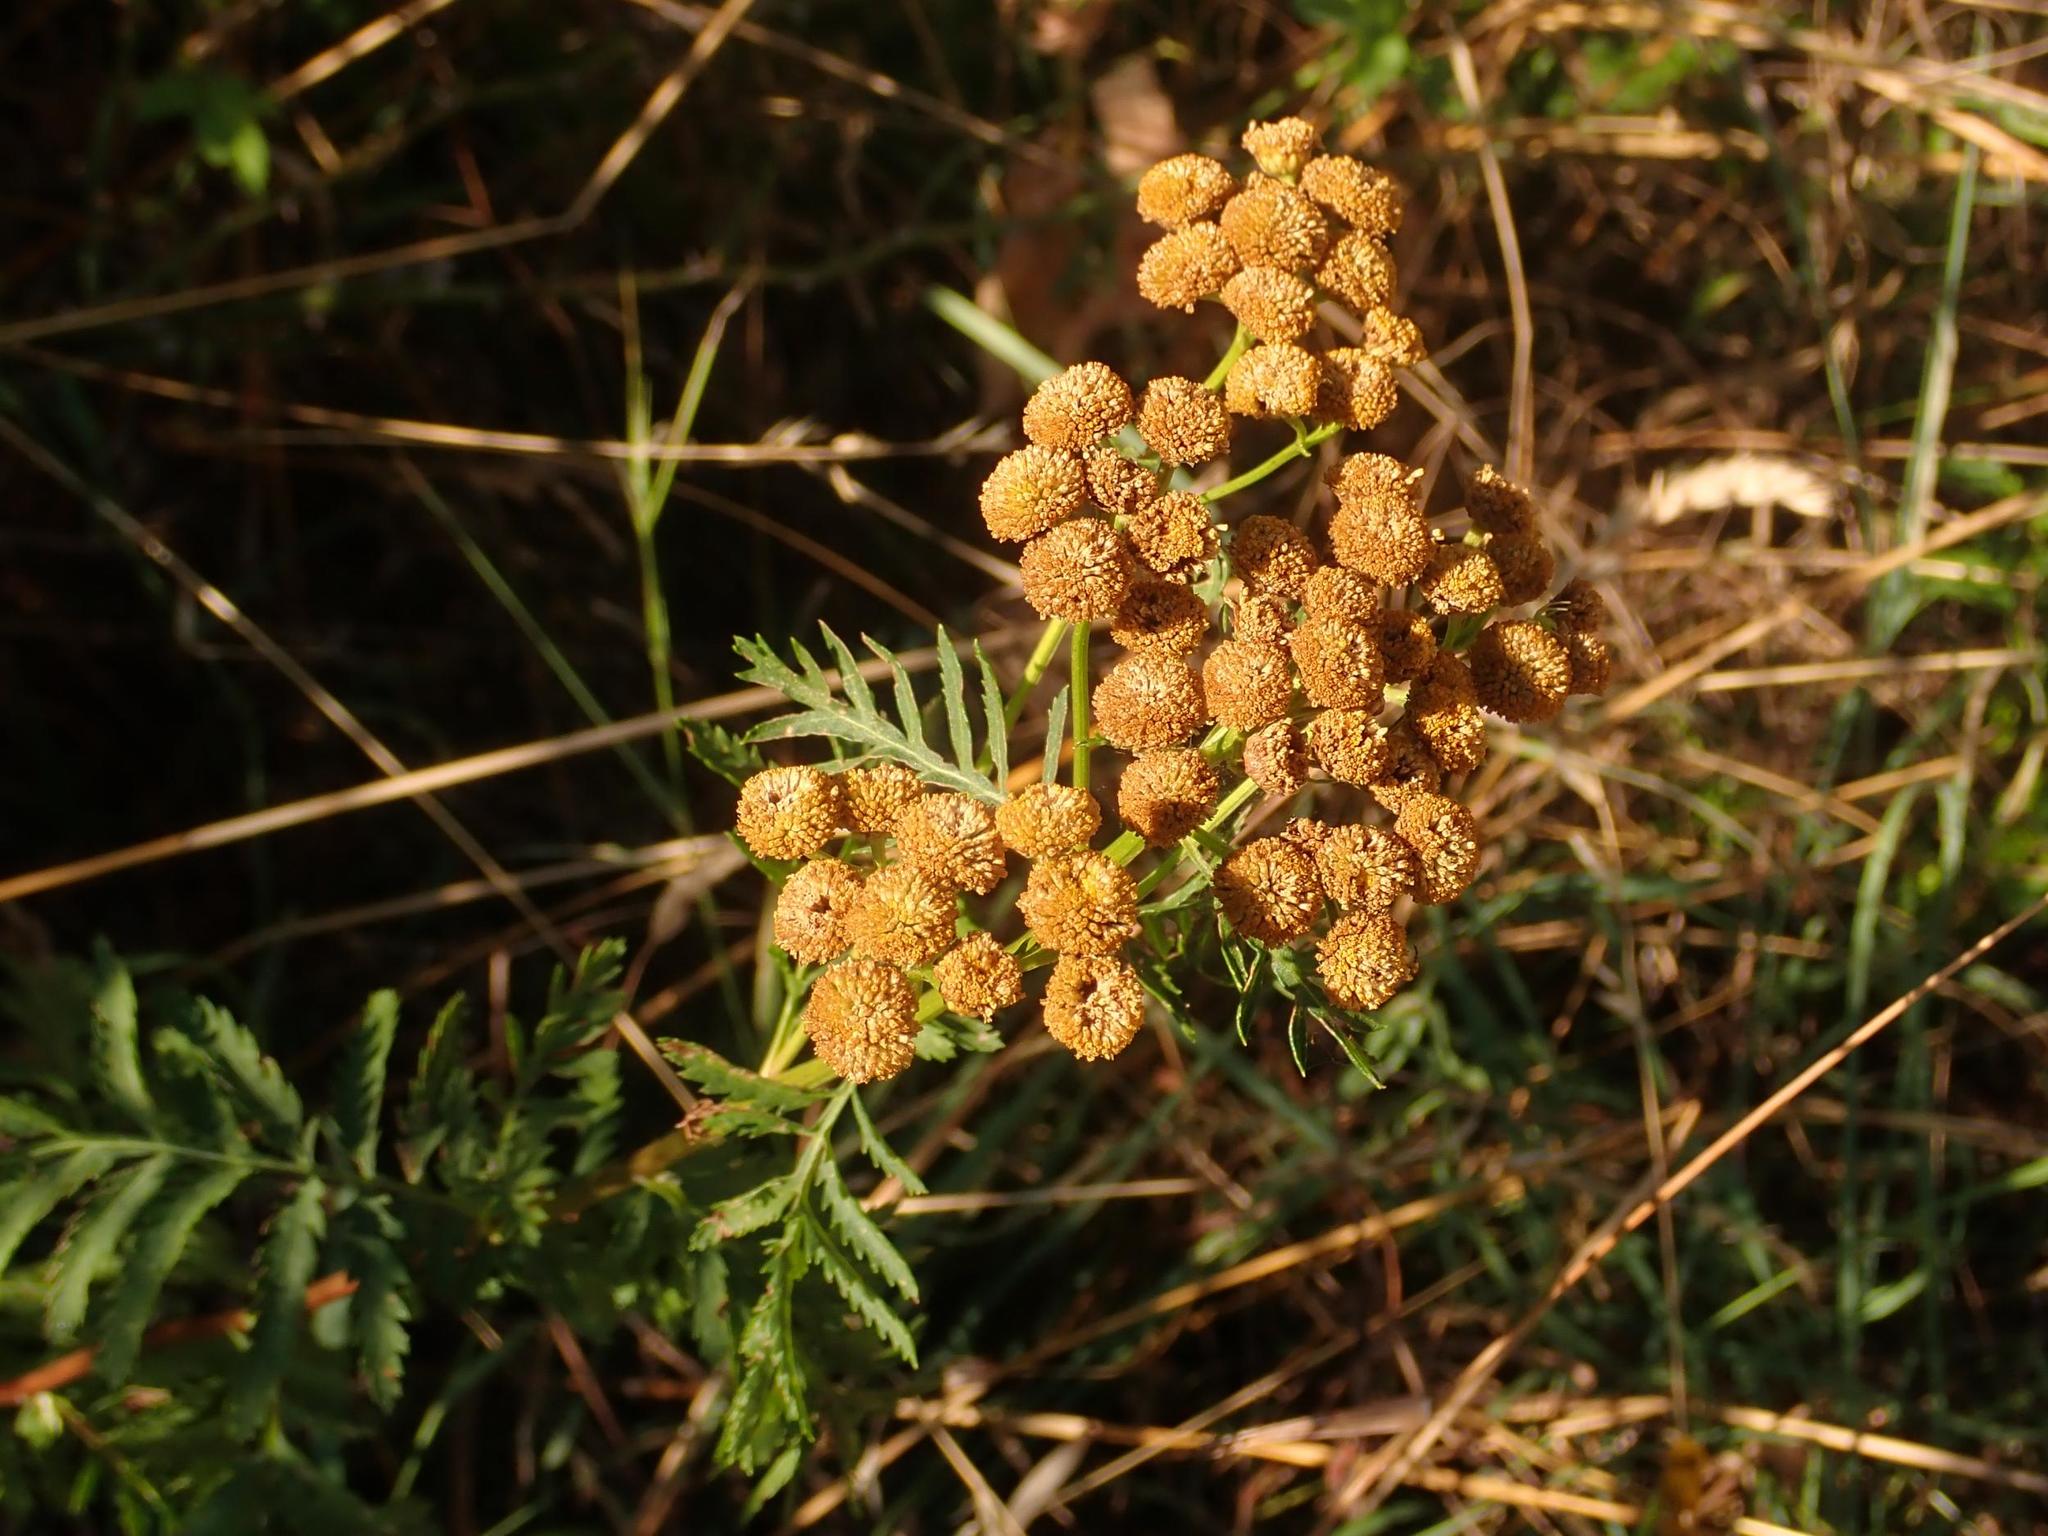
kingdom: Plantae
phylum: Tracheophyta
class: Magnoliopsida
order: Asterales
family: Asteraceae
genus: Tanacetum
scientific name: Tanacetum vulgare
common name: Common tansy
